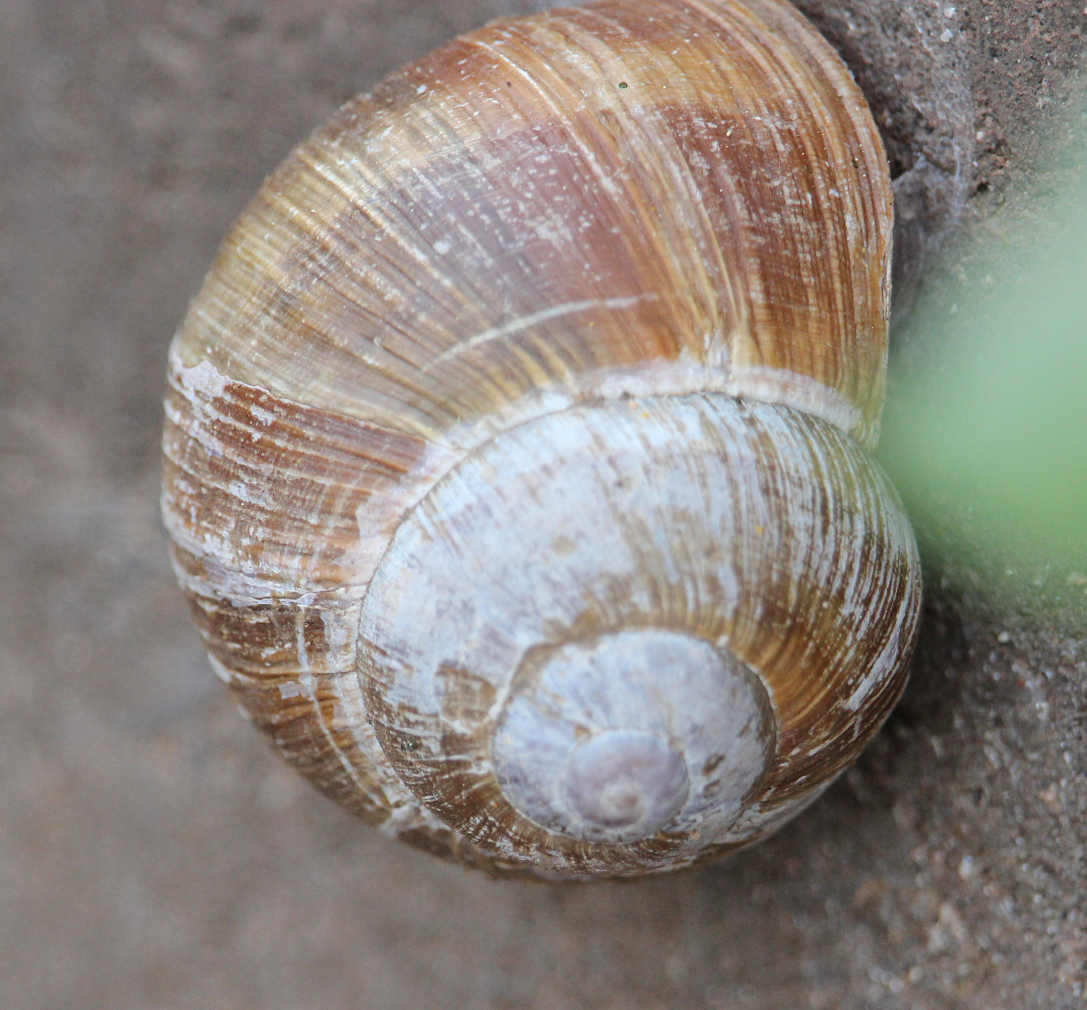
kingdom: Animalia
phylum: Mollusca
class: Gastropoda
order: Stylommatophora
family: Helicidae
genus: Helix
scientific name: Helix pomatia
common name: Roman snail
